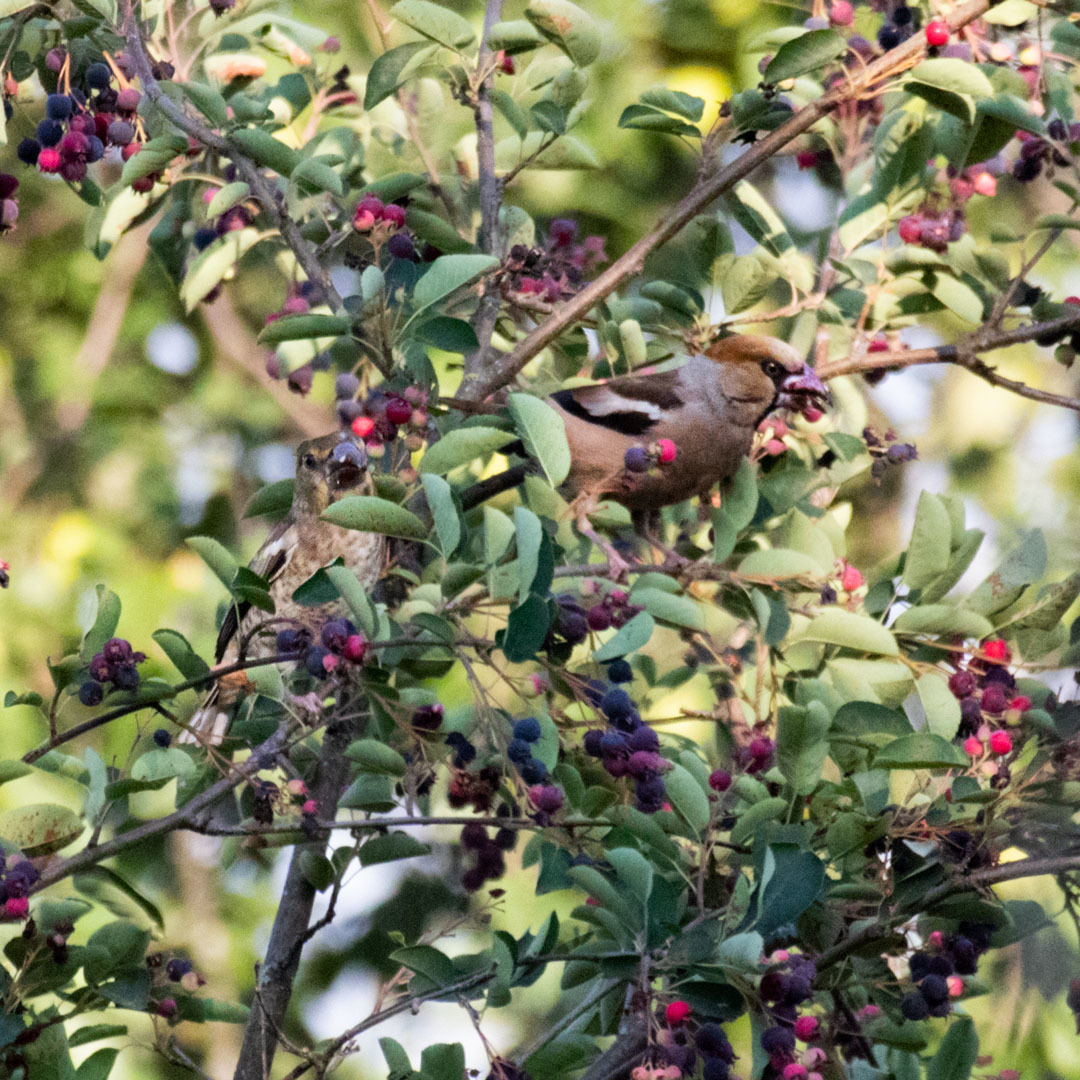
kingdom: Animalia
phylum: Chordata
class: Aves
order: Passeriformes
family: Fringillidae
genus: Coccothraustes
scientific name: Coccothraustes coccothraustes
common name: Hawfinch
